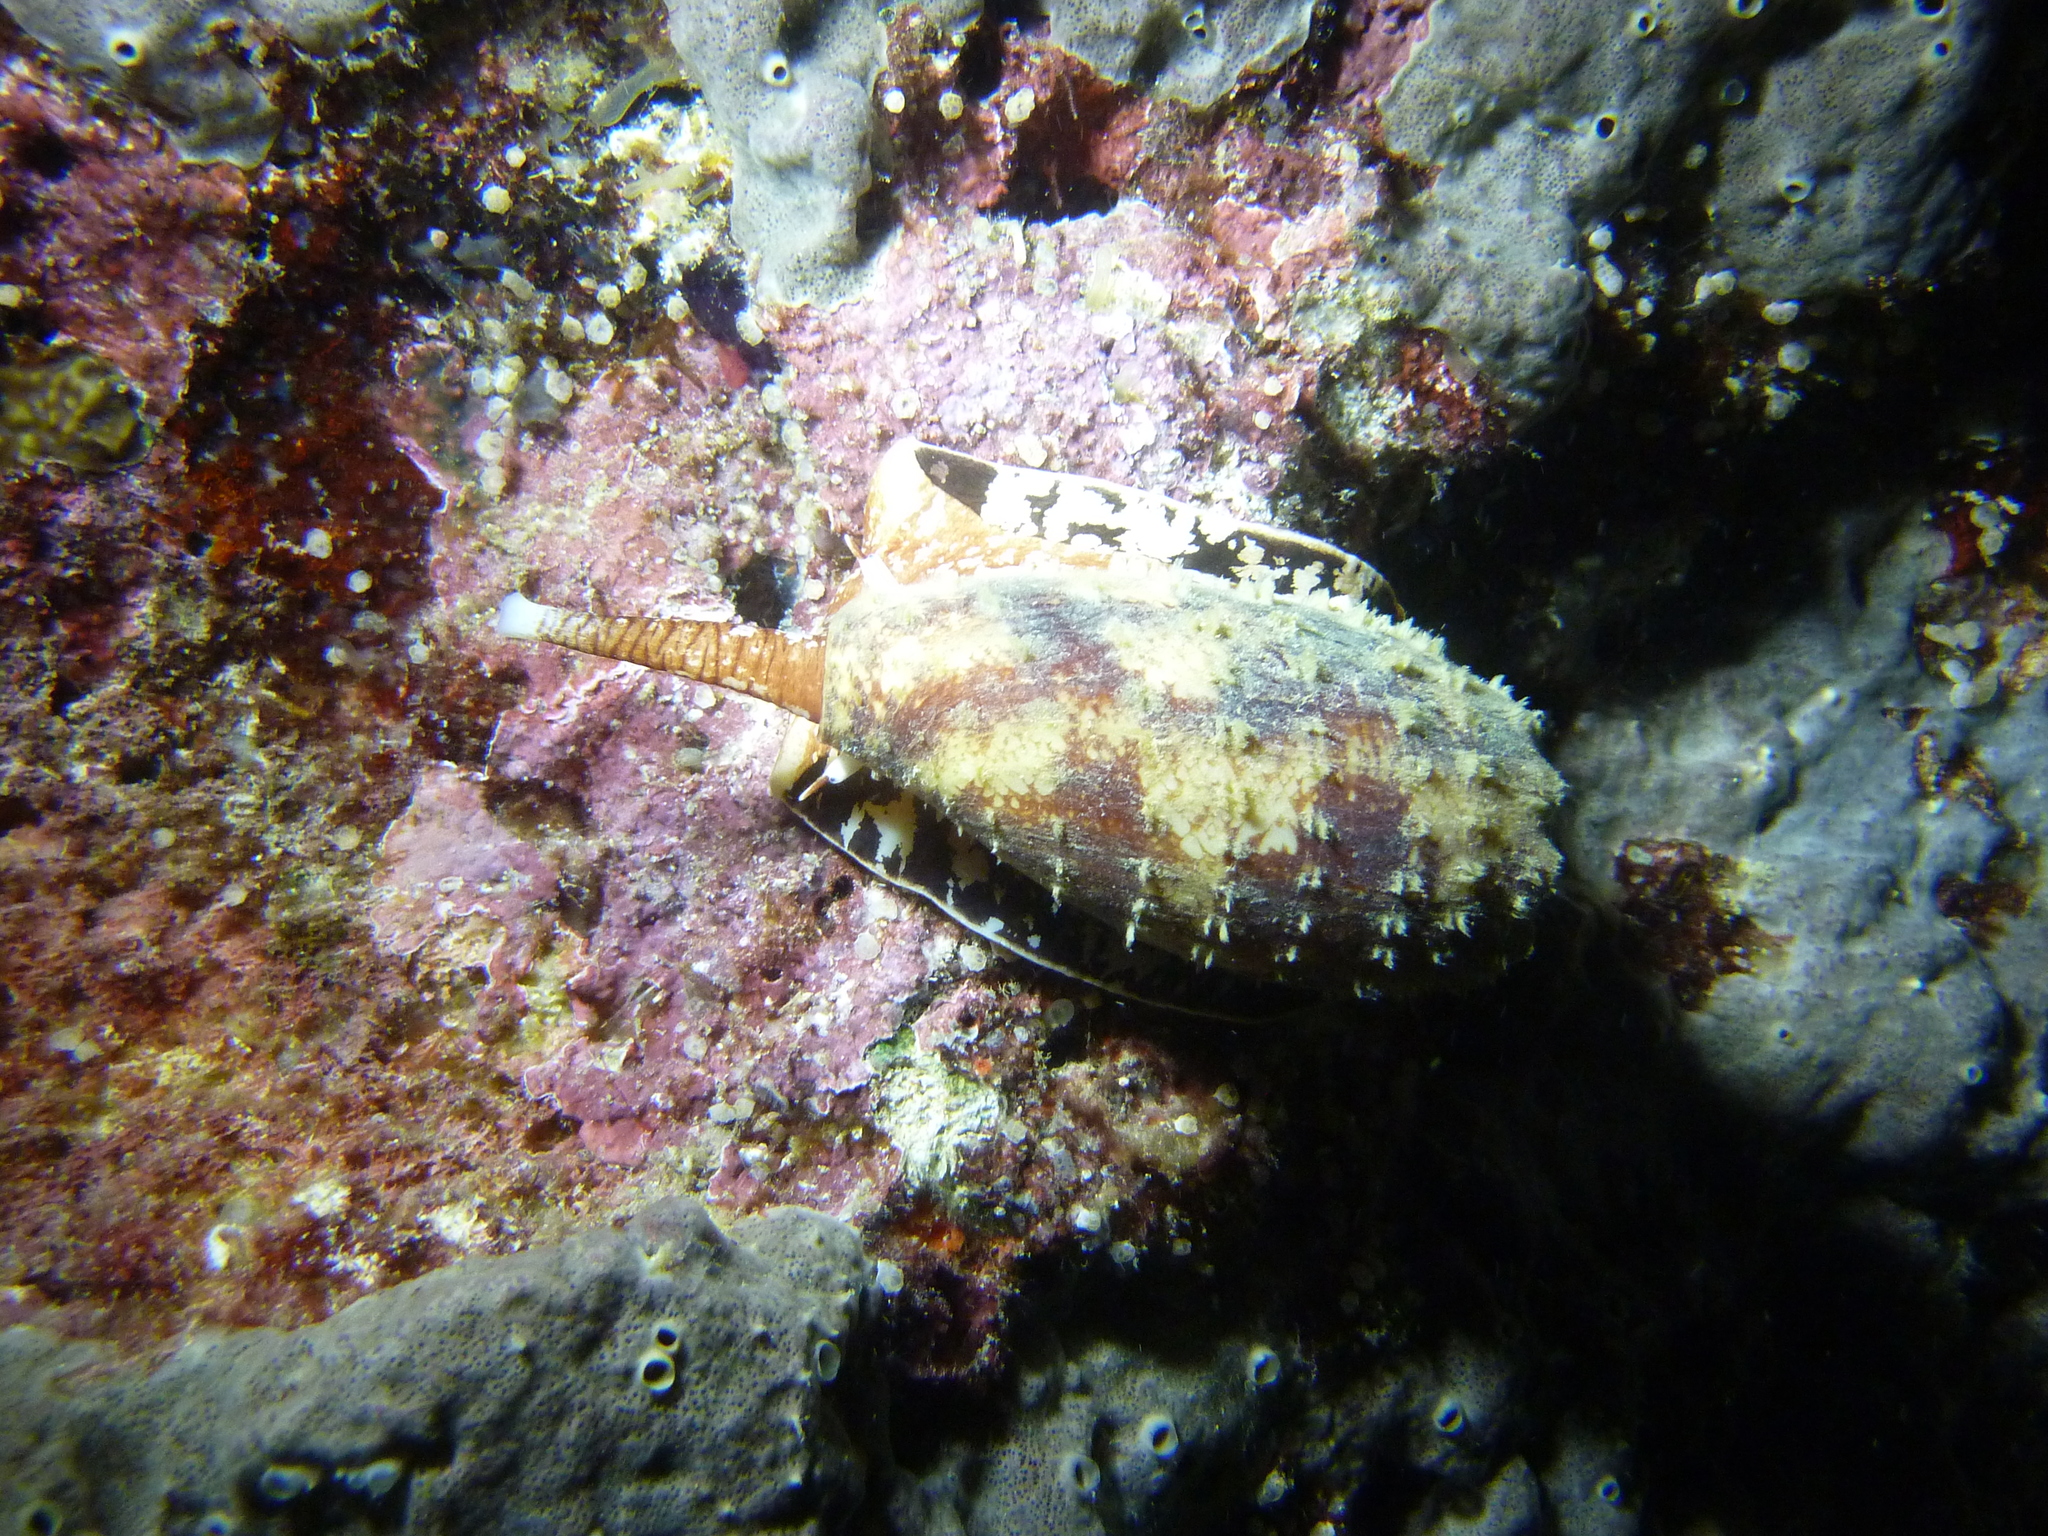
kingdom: Animalia
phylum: Mollusca
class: Gastropoda
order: Neogastropoda
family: Conidae
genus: Conus
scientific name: Conus geographus
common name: Geographer cone
